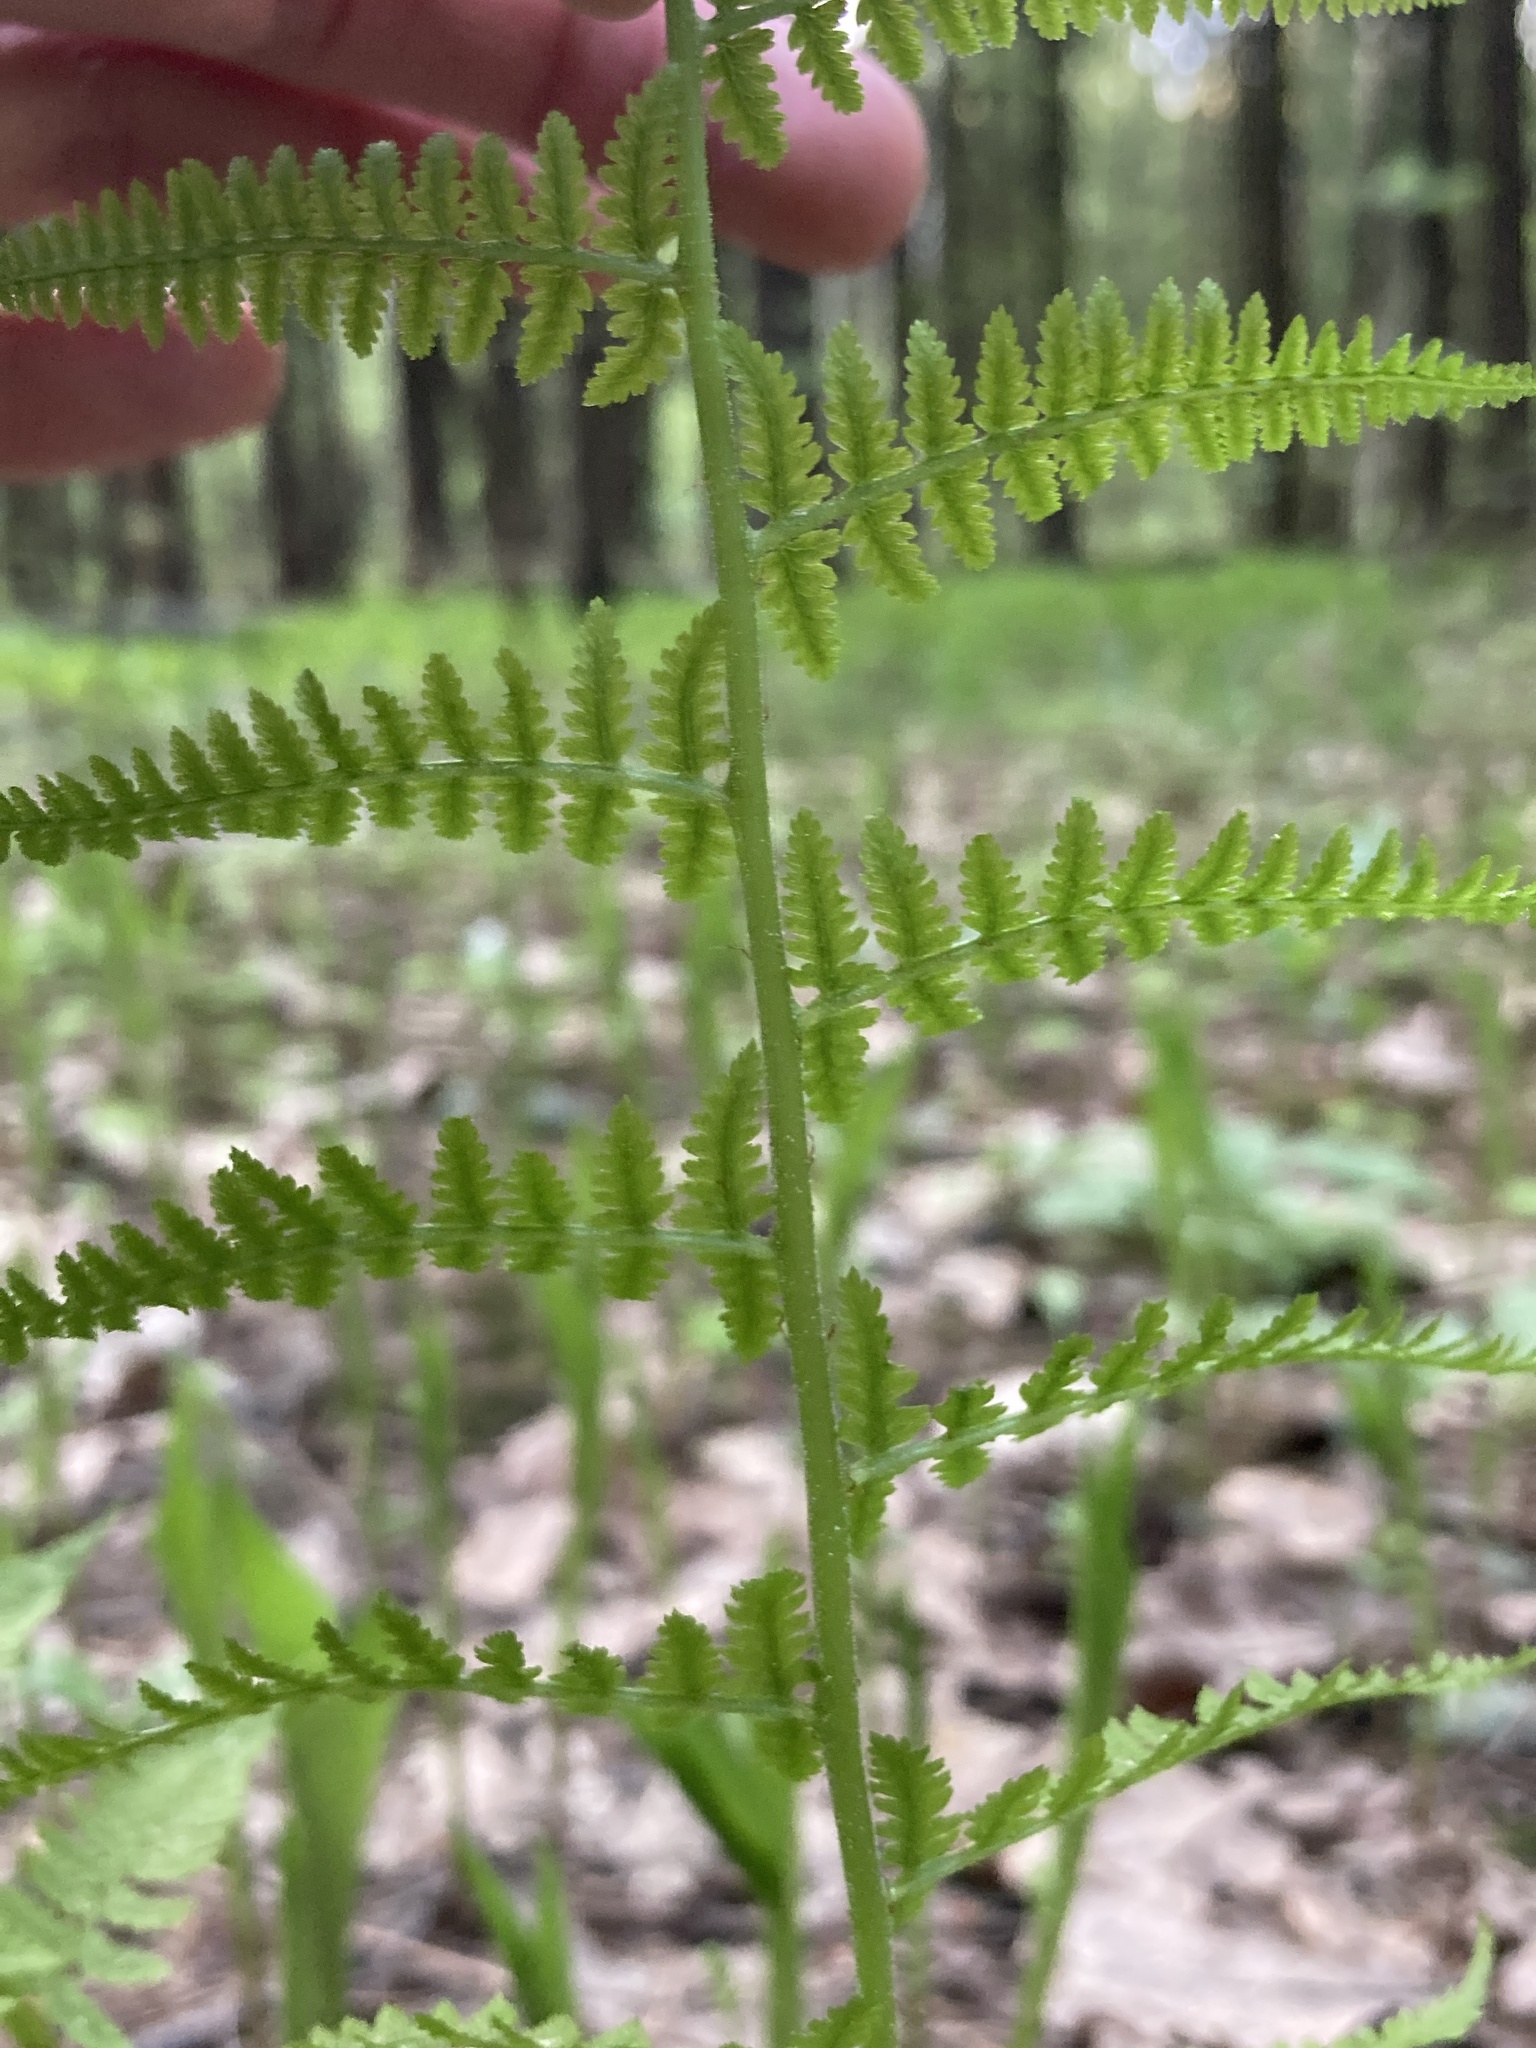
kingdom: Plantae
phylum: Tracheophyta
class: Polypodiopsida
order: Polypodiales
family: Athyriaceae
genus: Athyrium
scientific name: Athyrium filix-femina
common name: Lady fern
